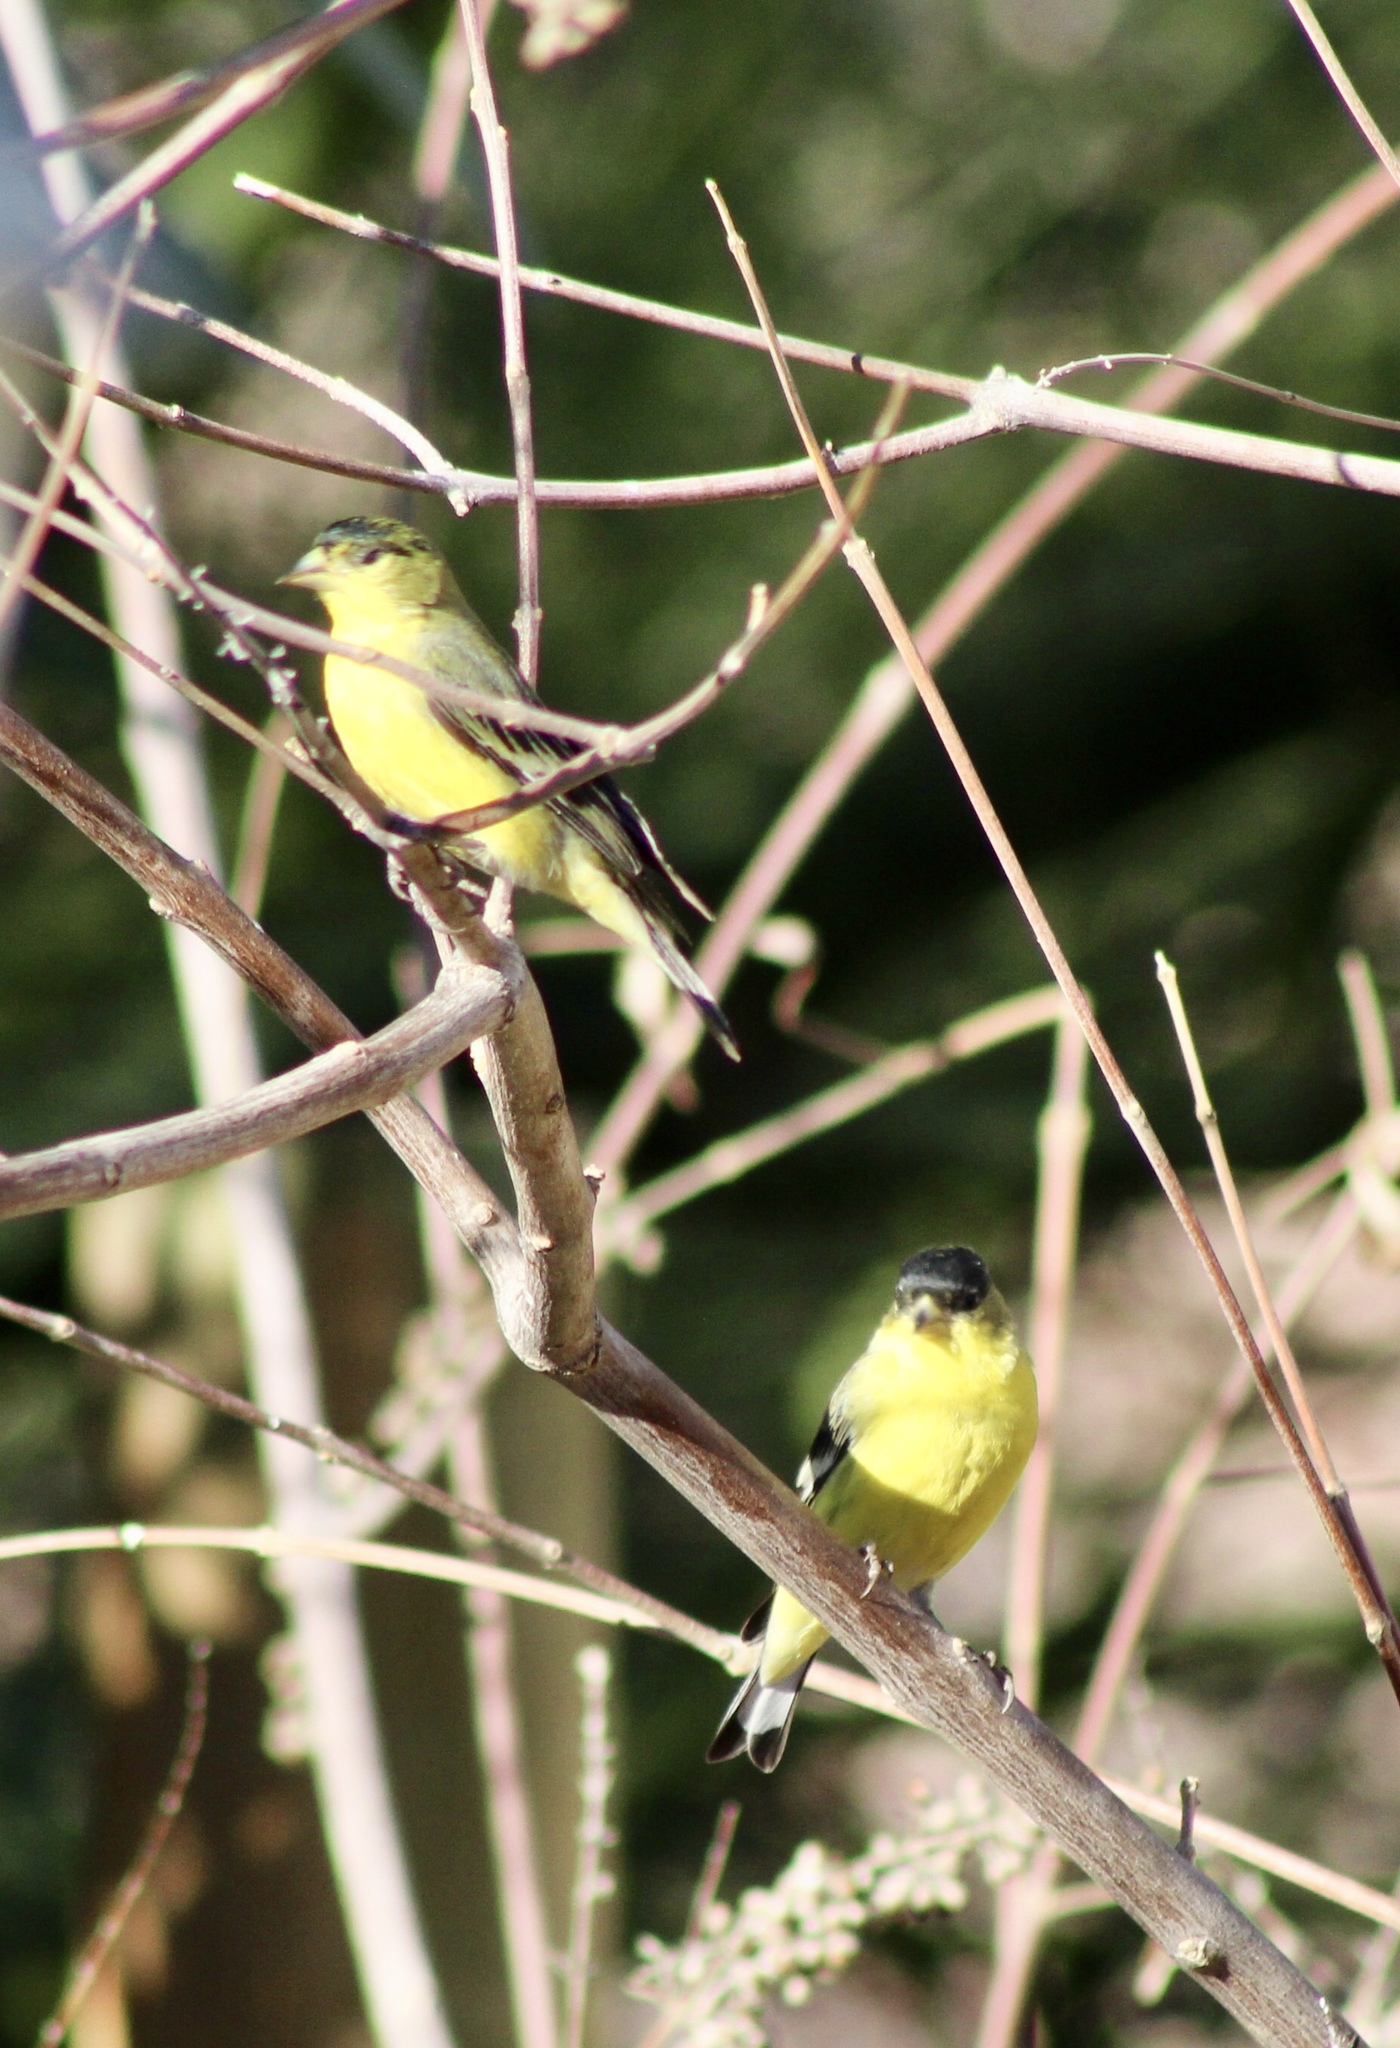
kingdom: Animalia
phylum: Chordata
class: Aves
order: Passeriformes
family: Fringillidae
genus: Spinus
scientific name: Spinus psaltria
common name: Lesser goldfinch
